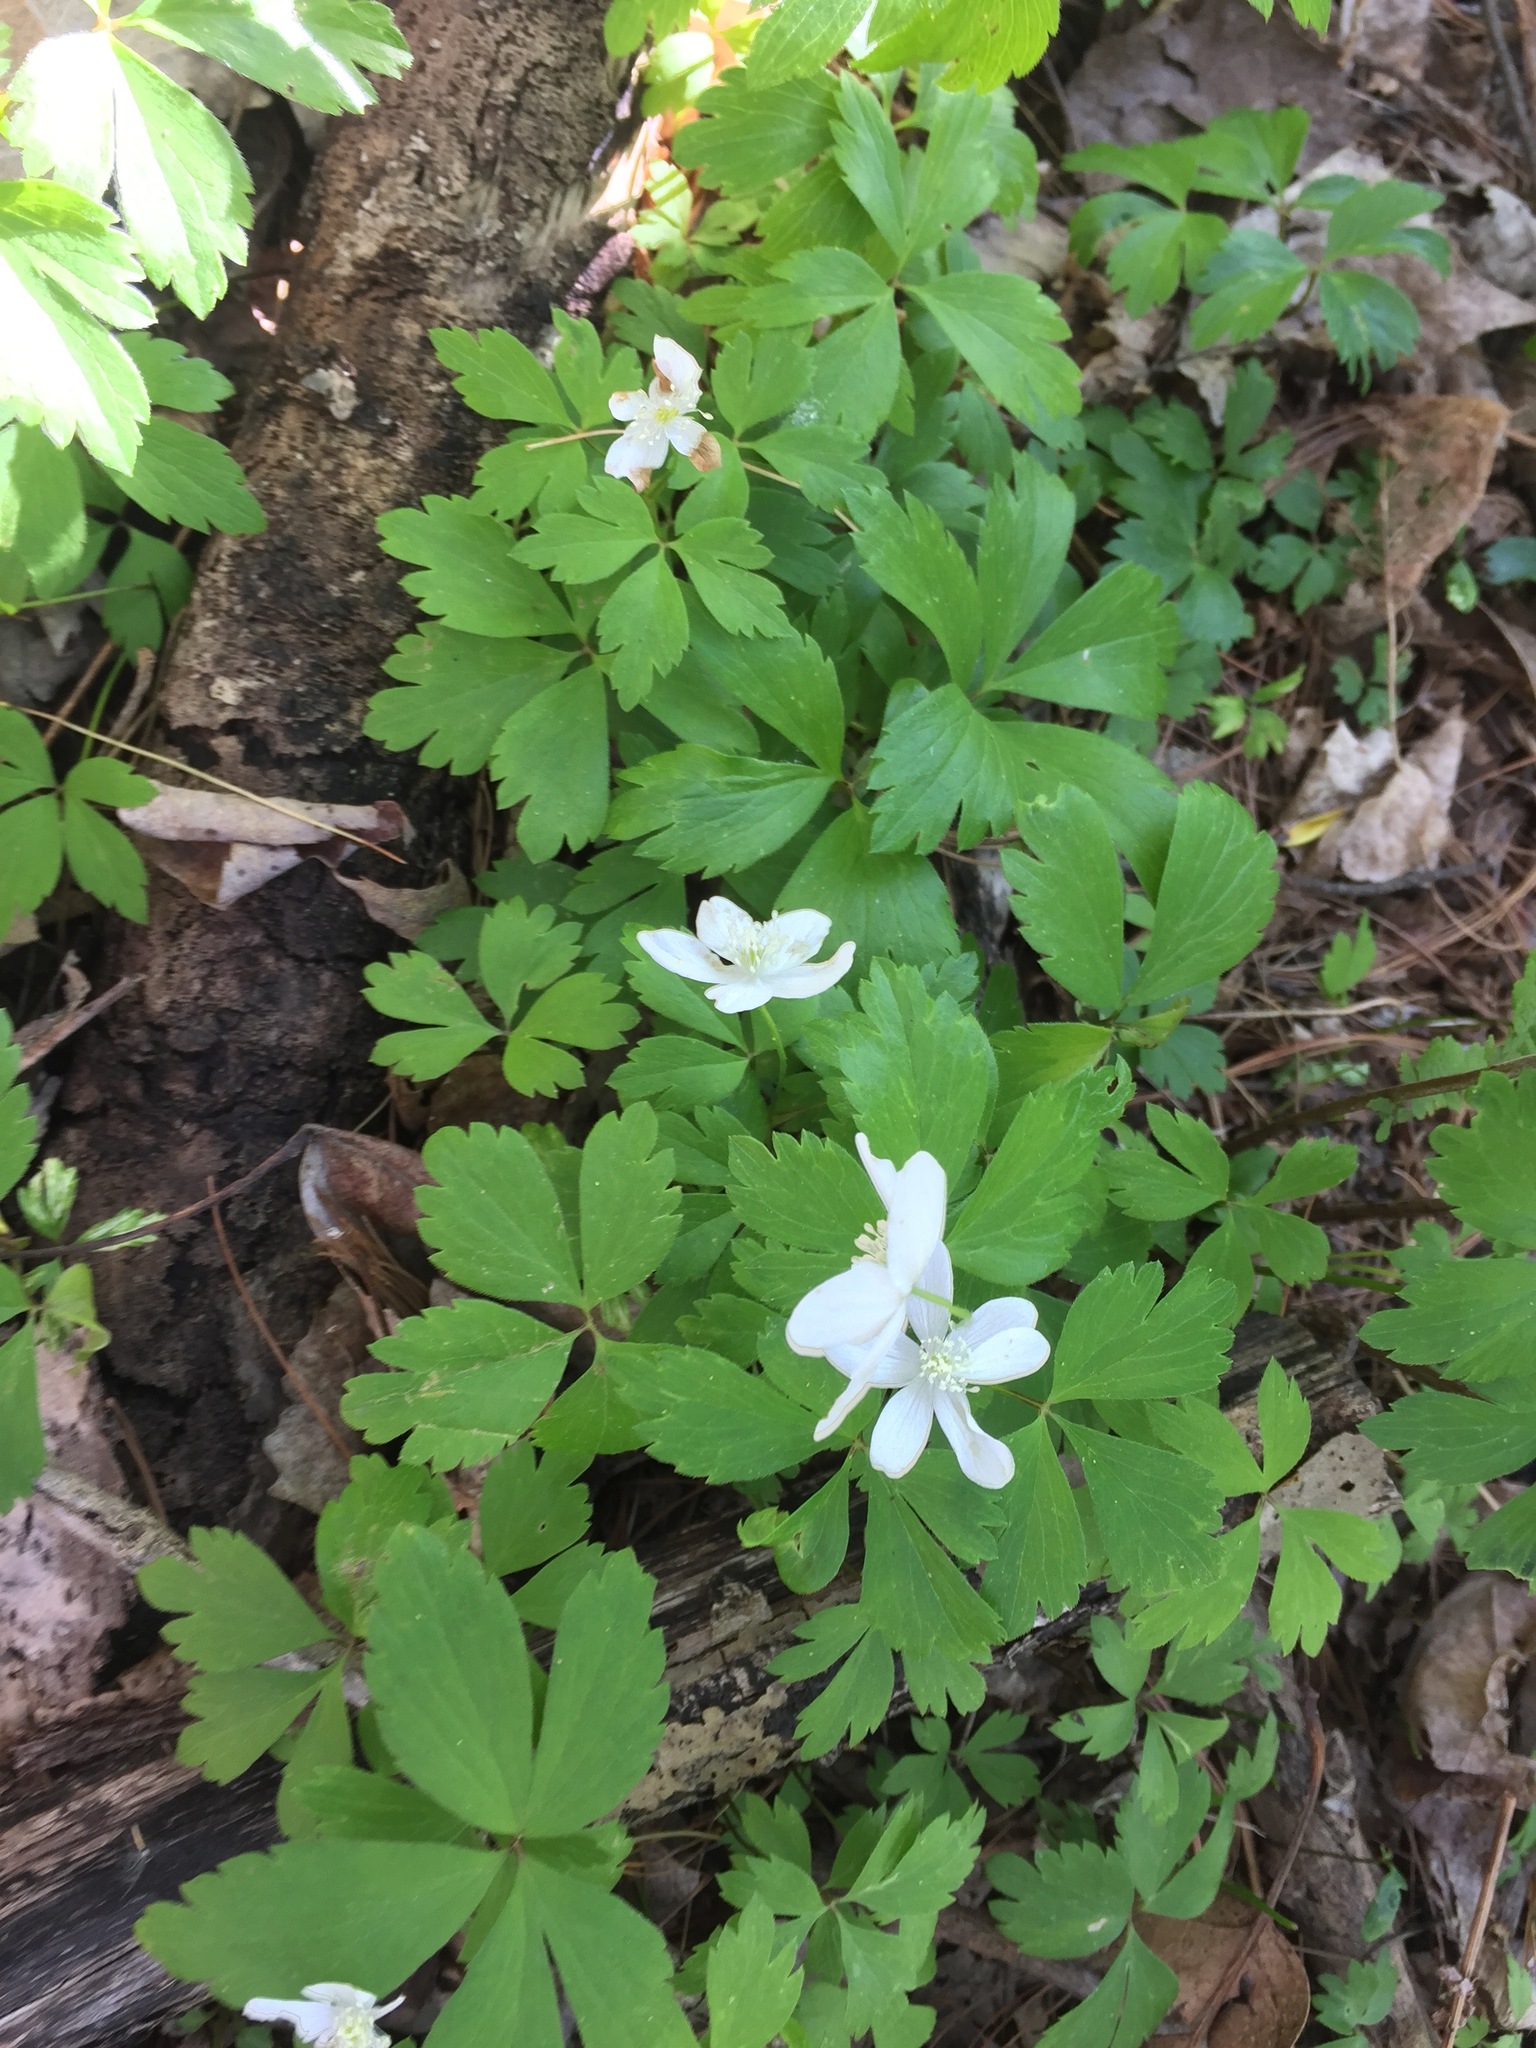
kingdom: Plantae
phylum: Tracheophyta
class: Magnoliopsida
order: Ranunculales
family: Ranunculaceae
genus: Anemone
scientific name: Anemone quinquefolia
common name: Wood anemone
